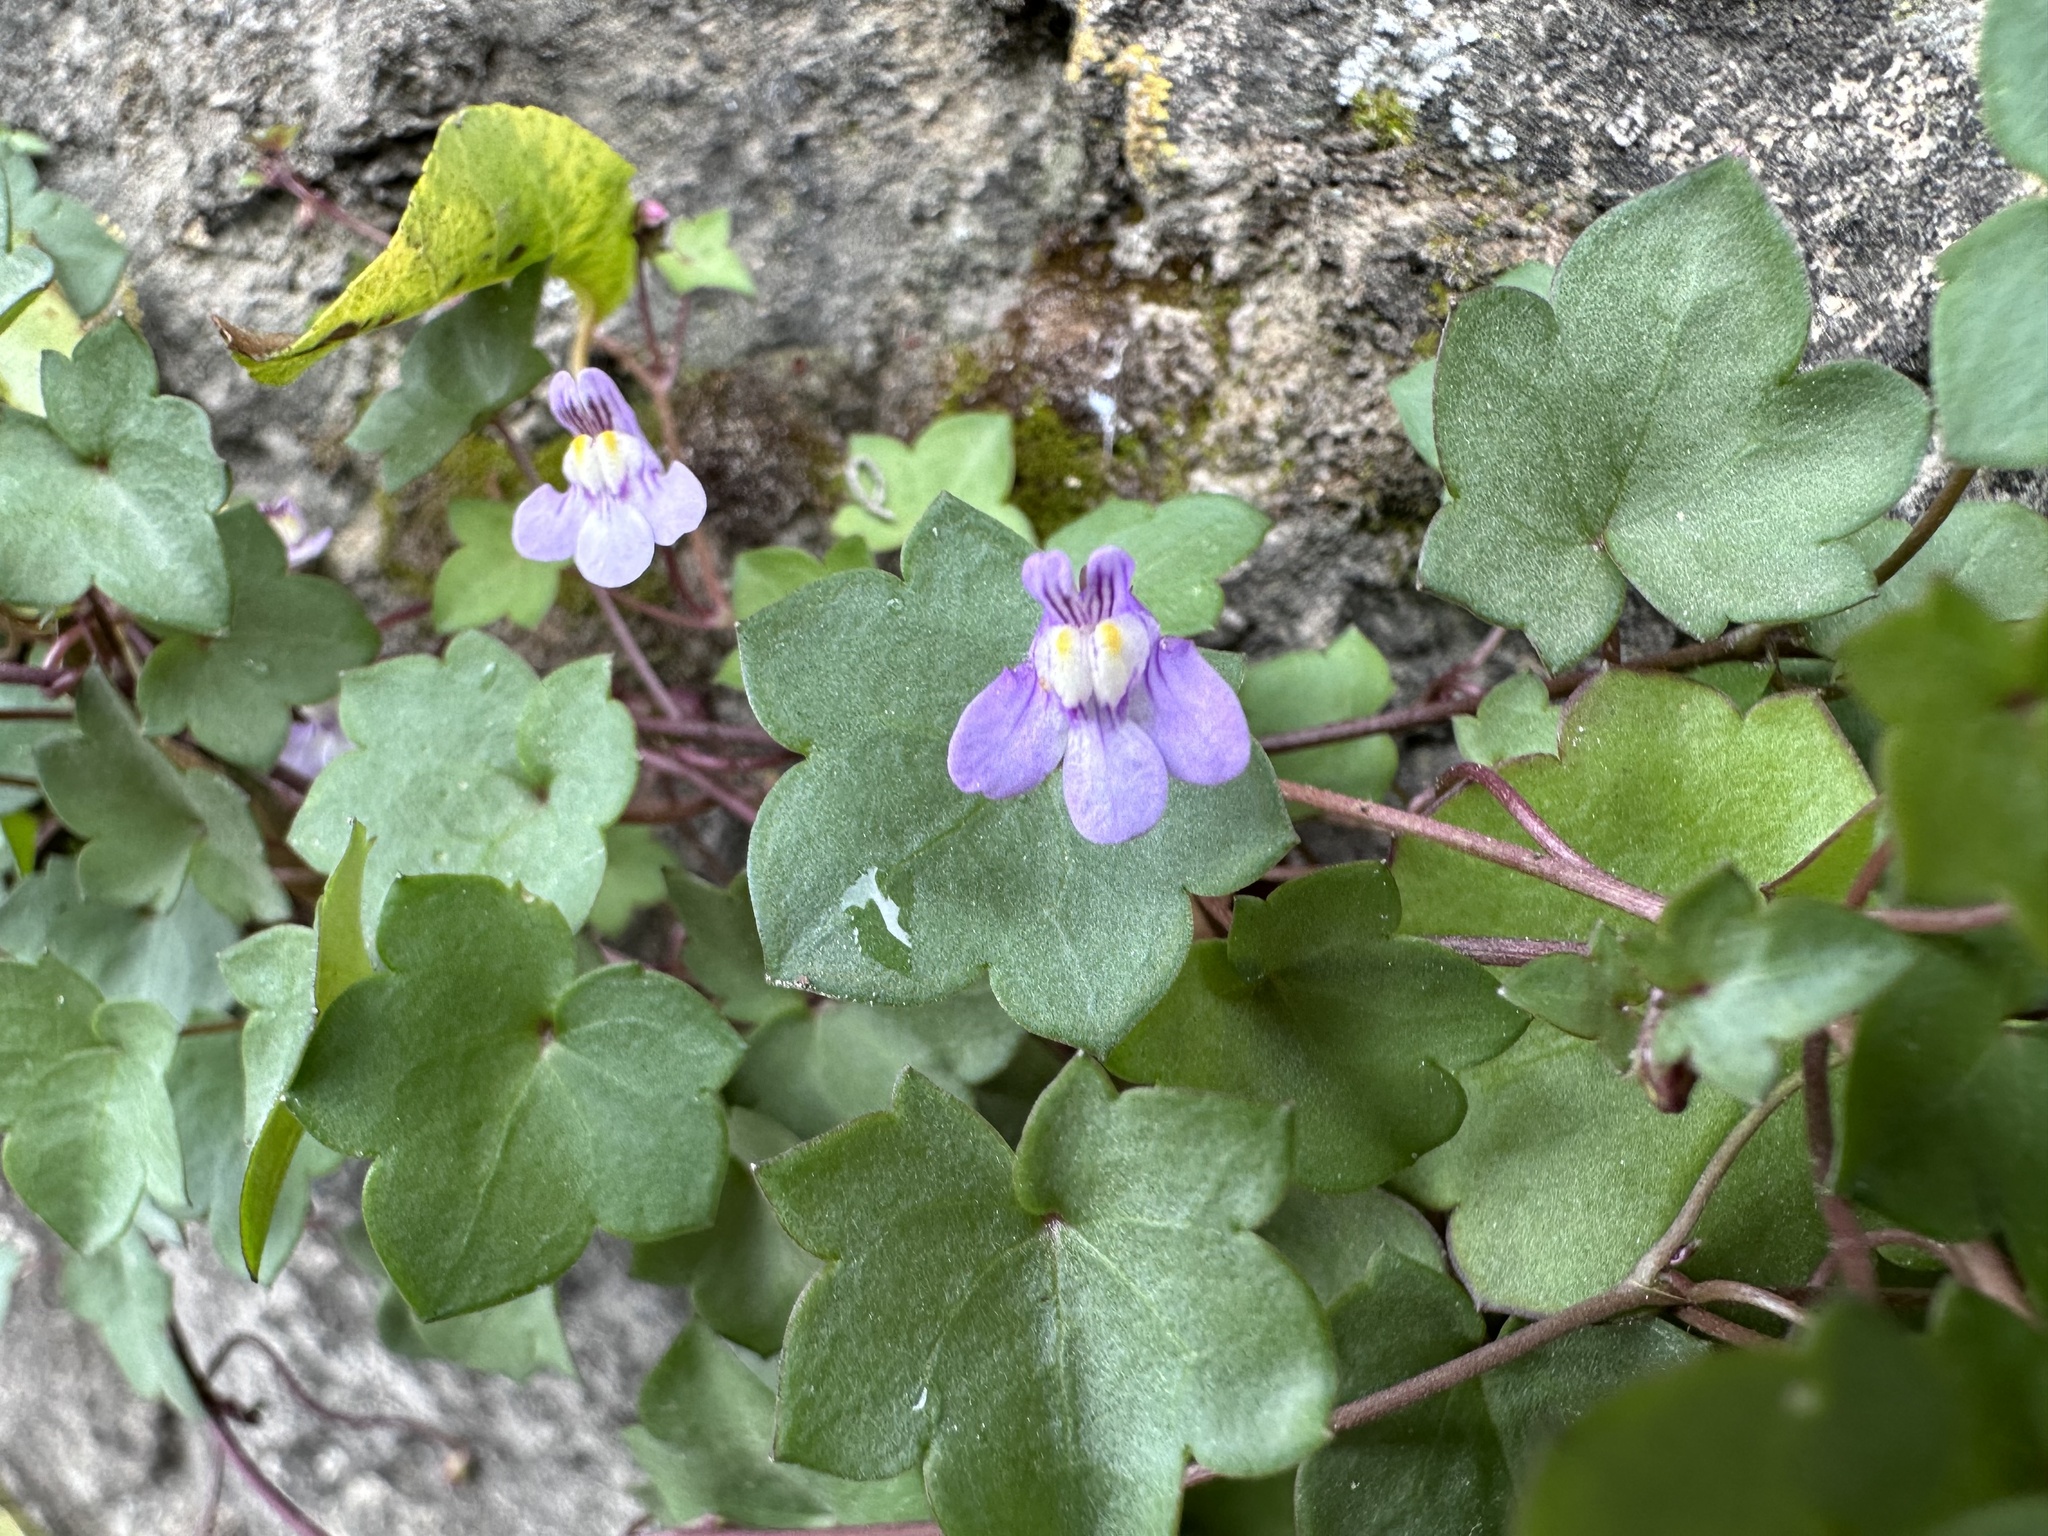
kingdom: Plantae
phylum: Tracheophyta
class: Magnoliopsida
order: Lamiales
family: Plantaginaceae
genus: Cymbalaria
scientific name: Cymbalaria muralis
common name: Ivy-leaved toadflax
